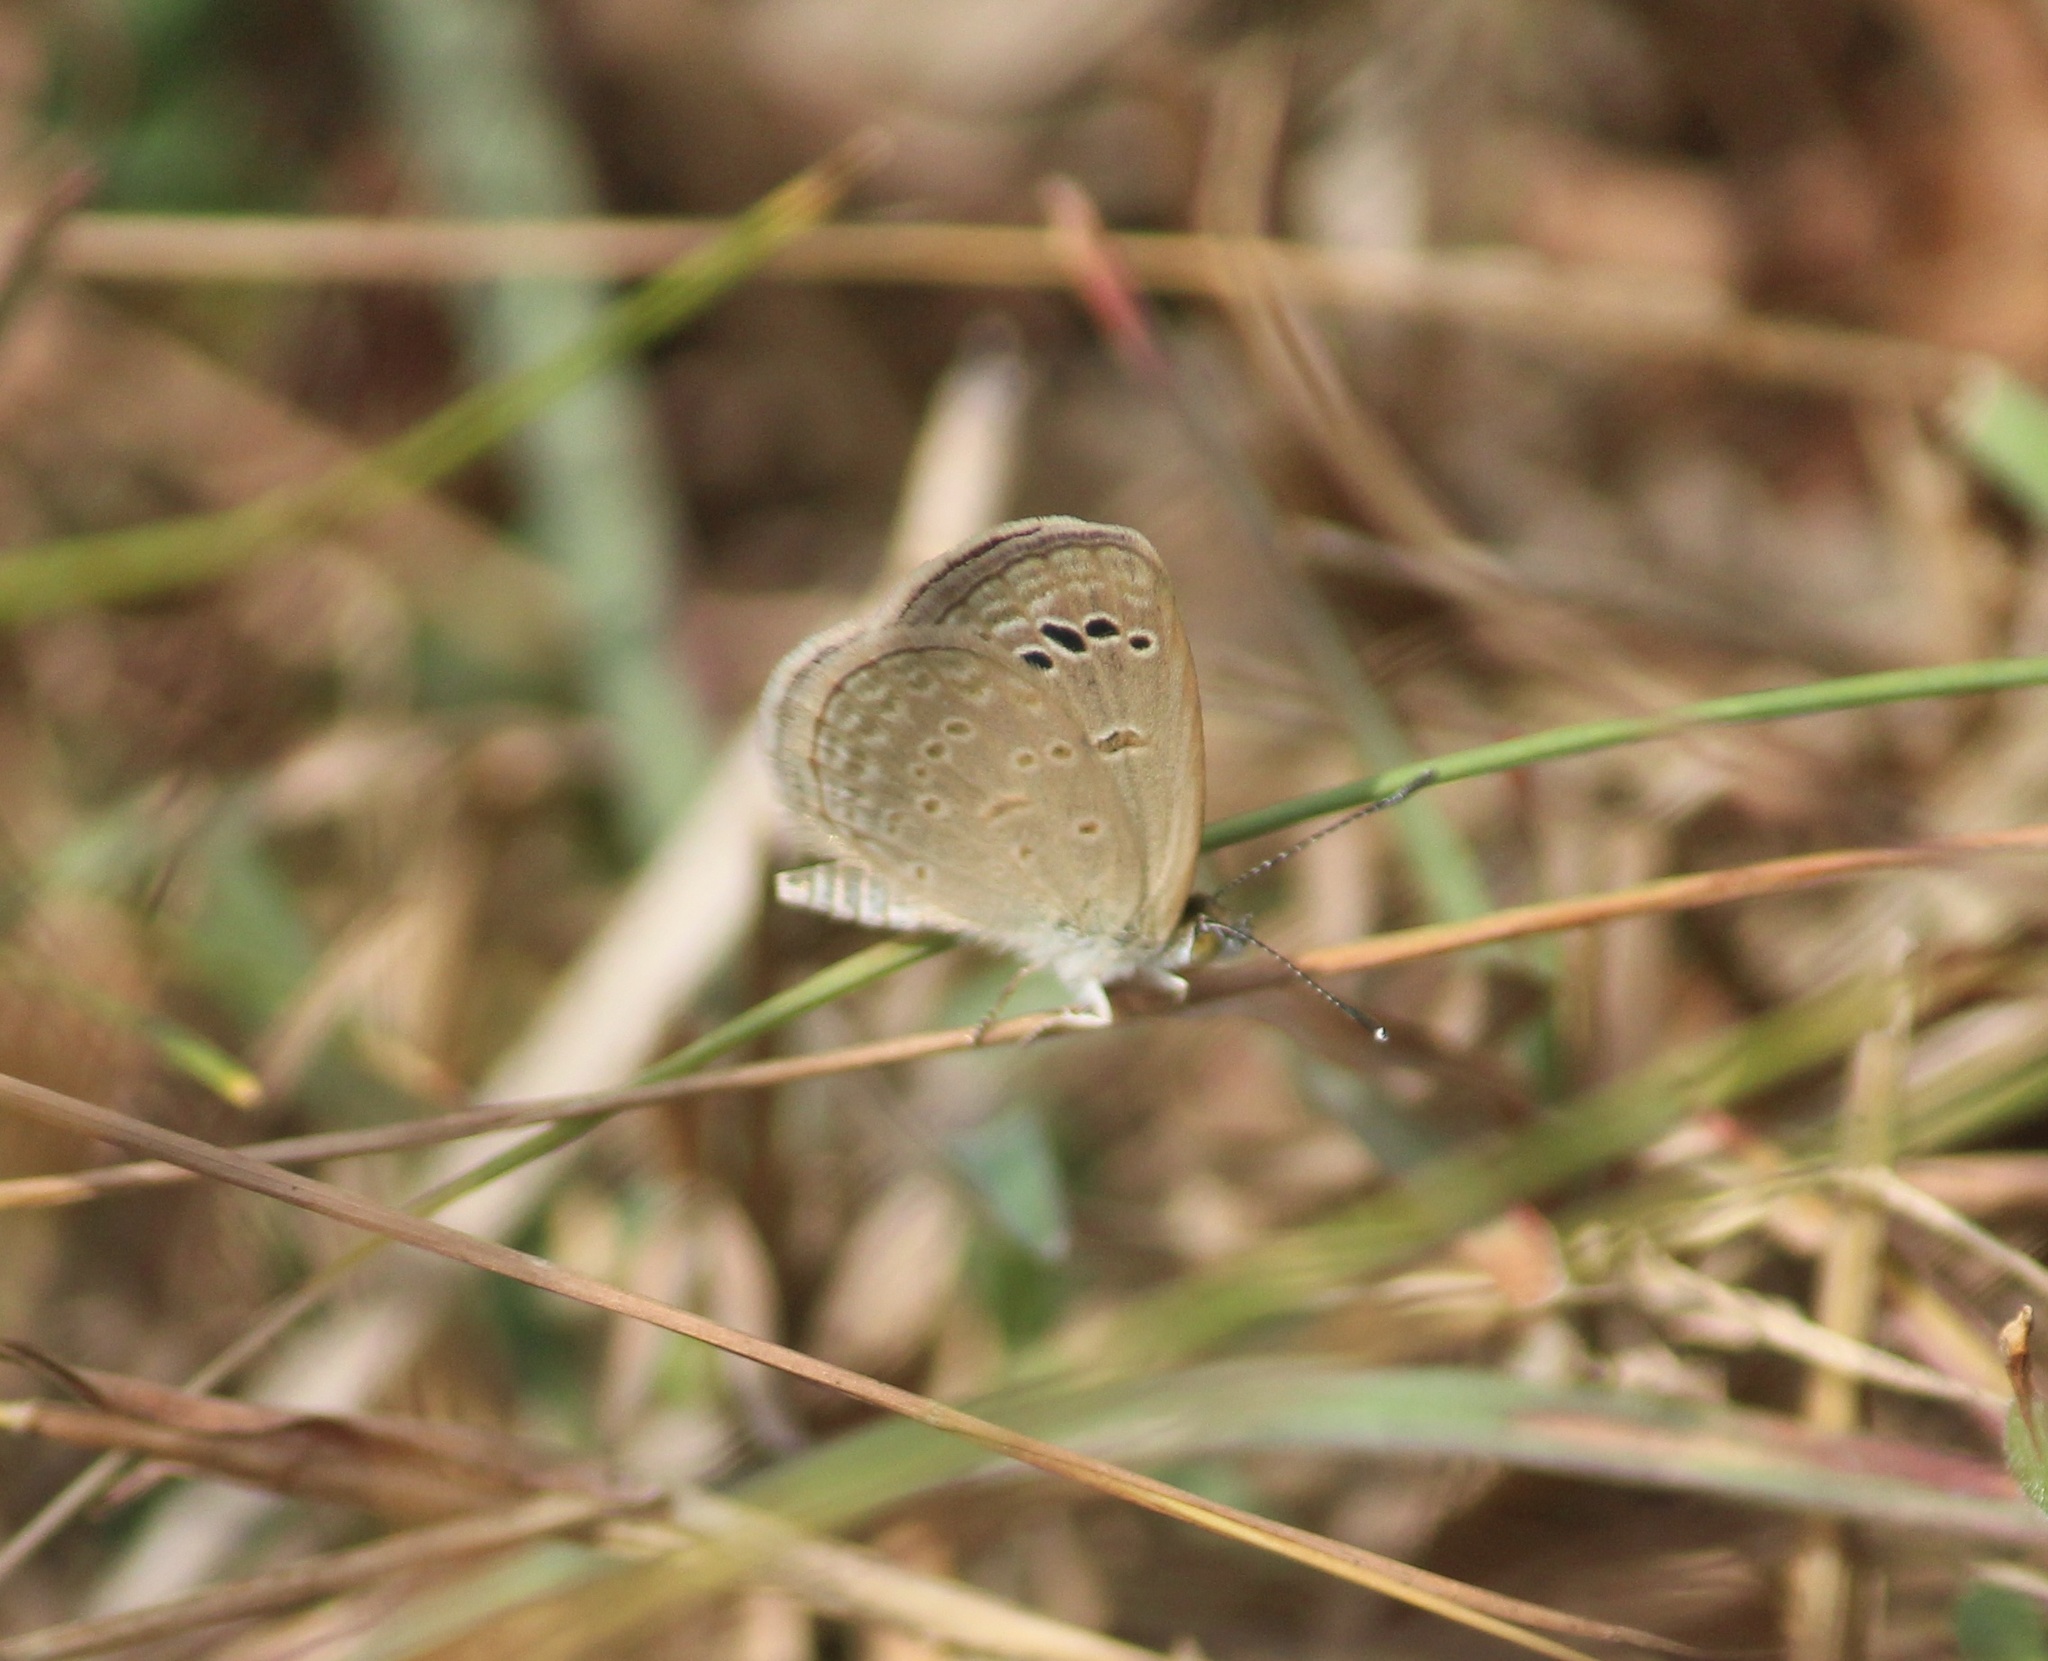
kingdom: Animalia
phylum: Arthropoda
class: Insecta
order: Lepidoptera
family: Lycaenidae
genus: Zizina
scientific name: Zizina otis
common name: Lesser grass blue
